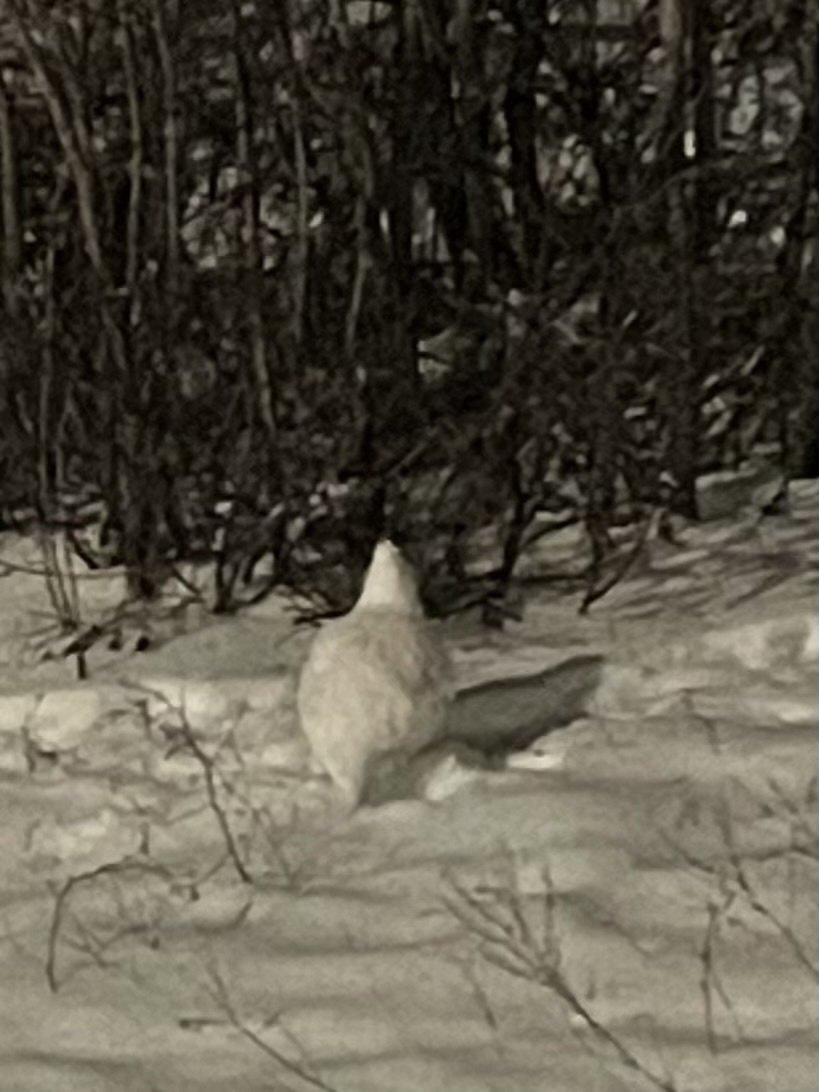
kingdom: Animalia
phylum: Chordata
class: Aves
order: Galliformes
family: Phasianidae
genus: Lagopus
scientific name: Lagopus lagopus
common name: Willow ptarmigan
